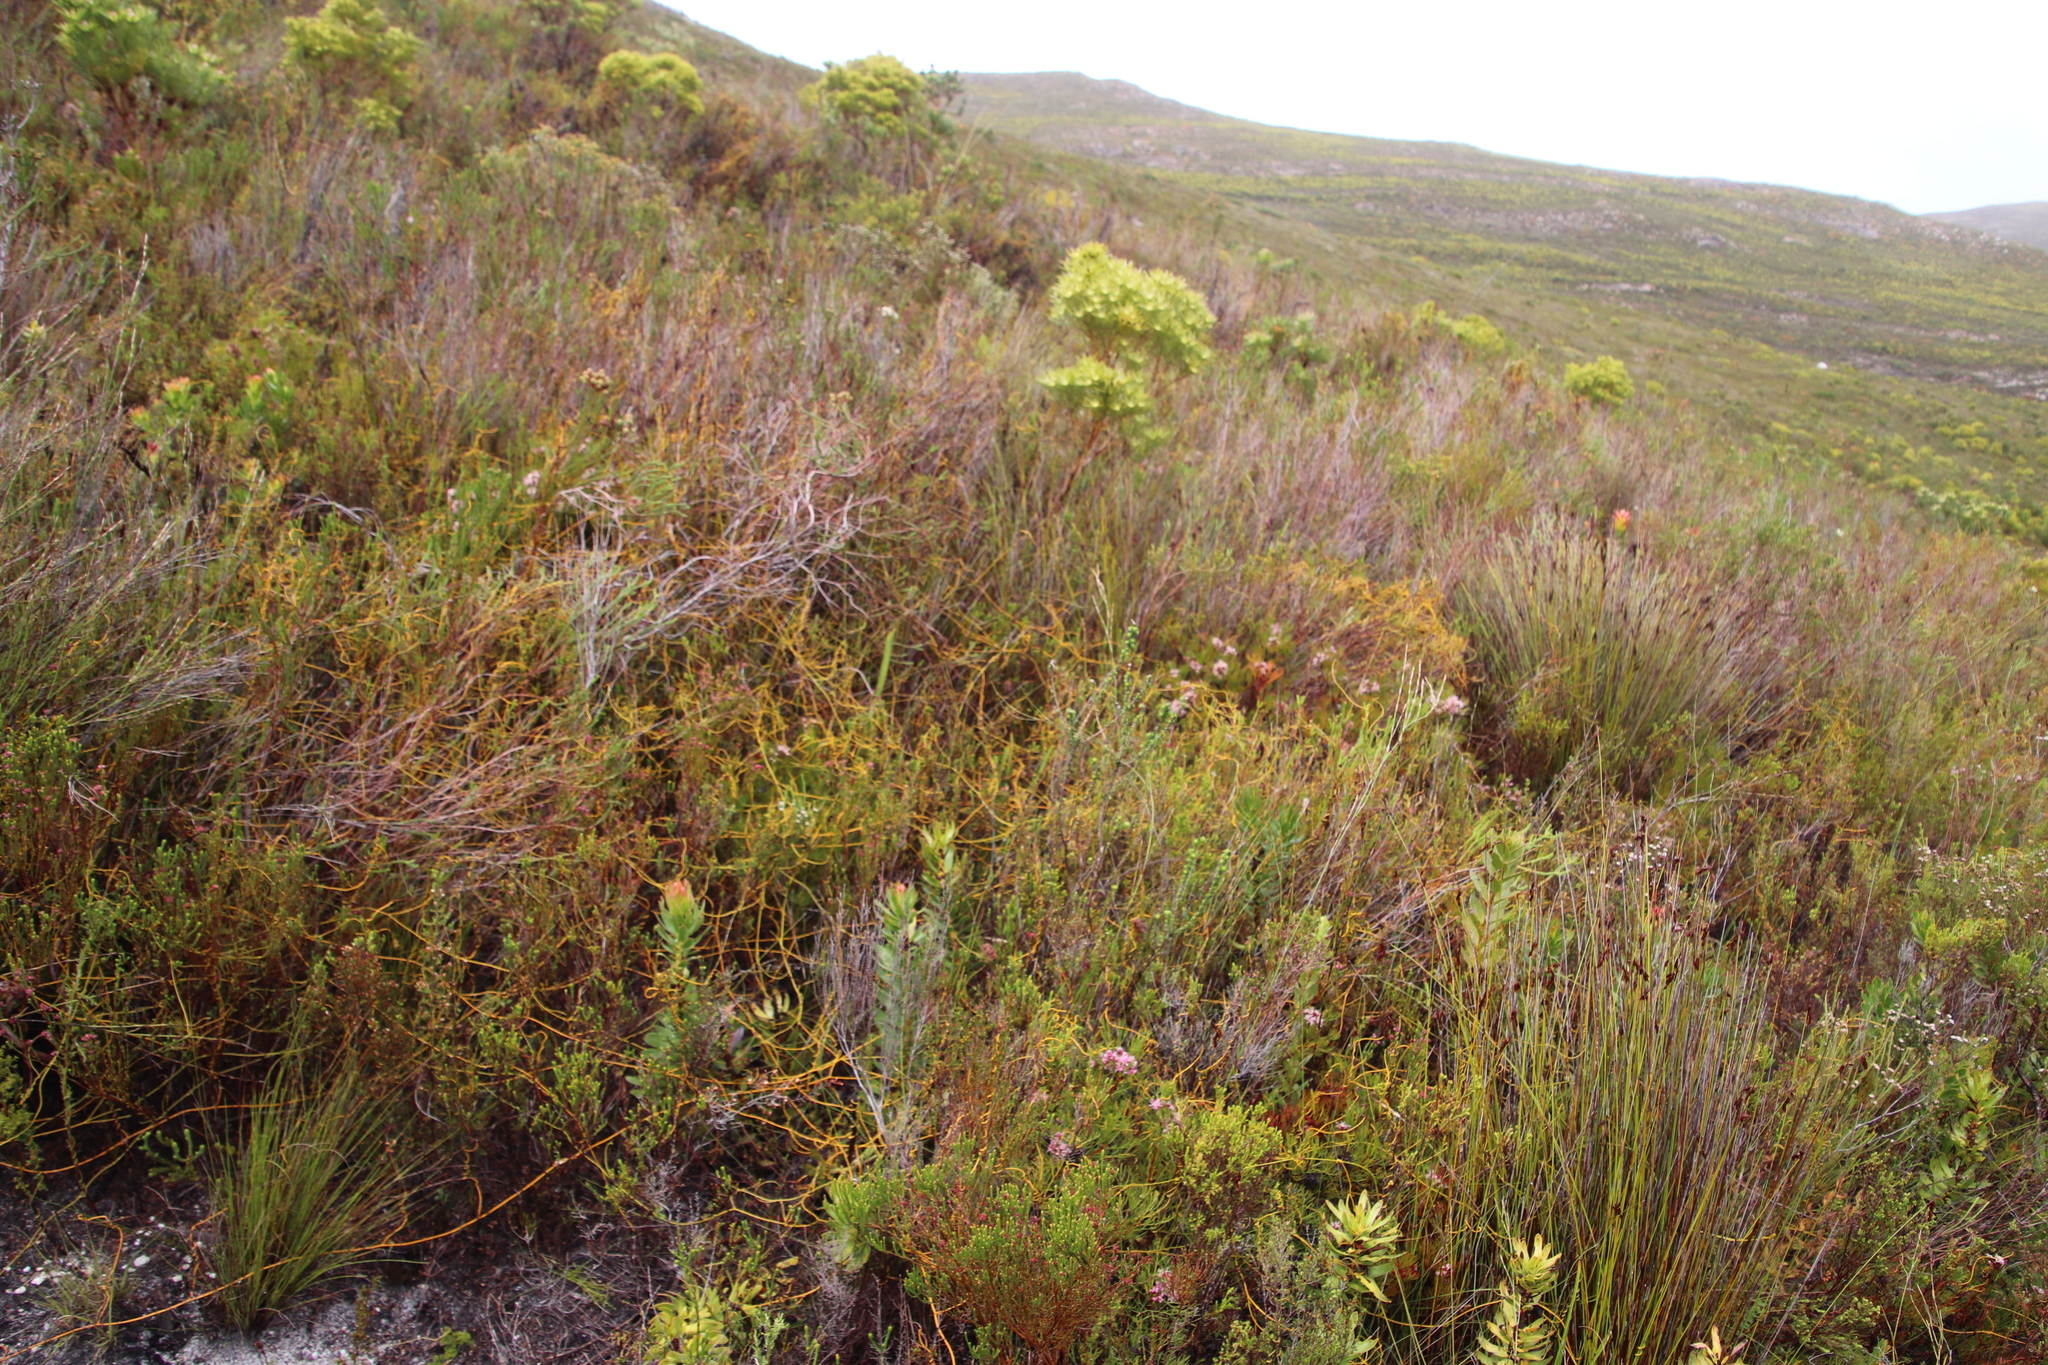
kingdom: Plantae
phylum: Tracheophyta
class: Magnoliopsida
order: Laurales
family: Lauraceae
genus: Cassytha
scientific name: Cassytha ciliolata
